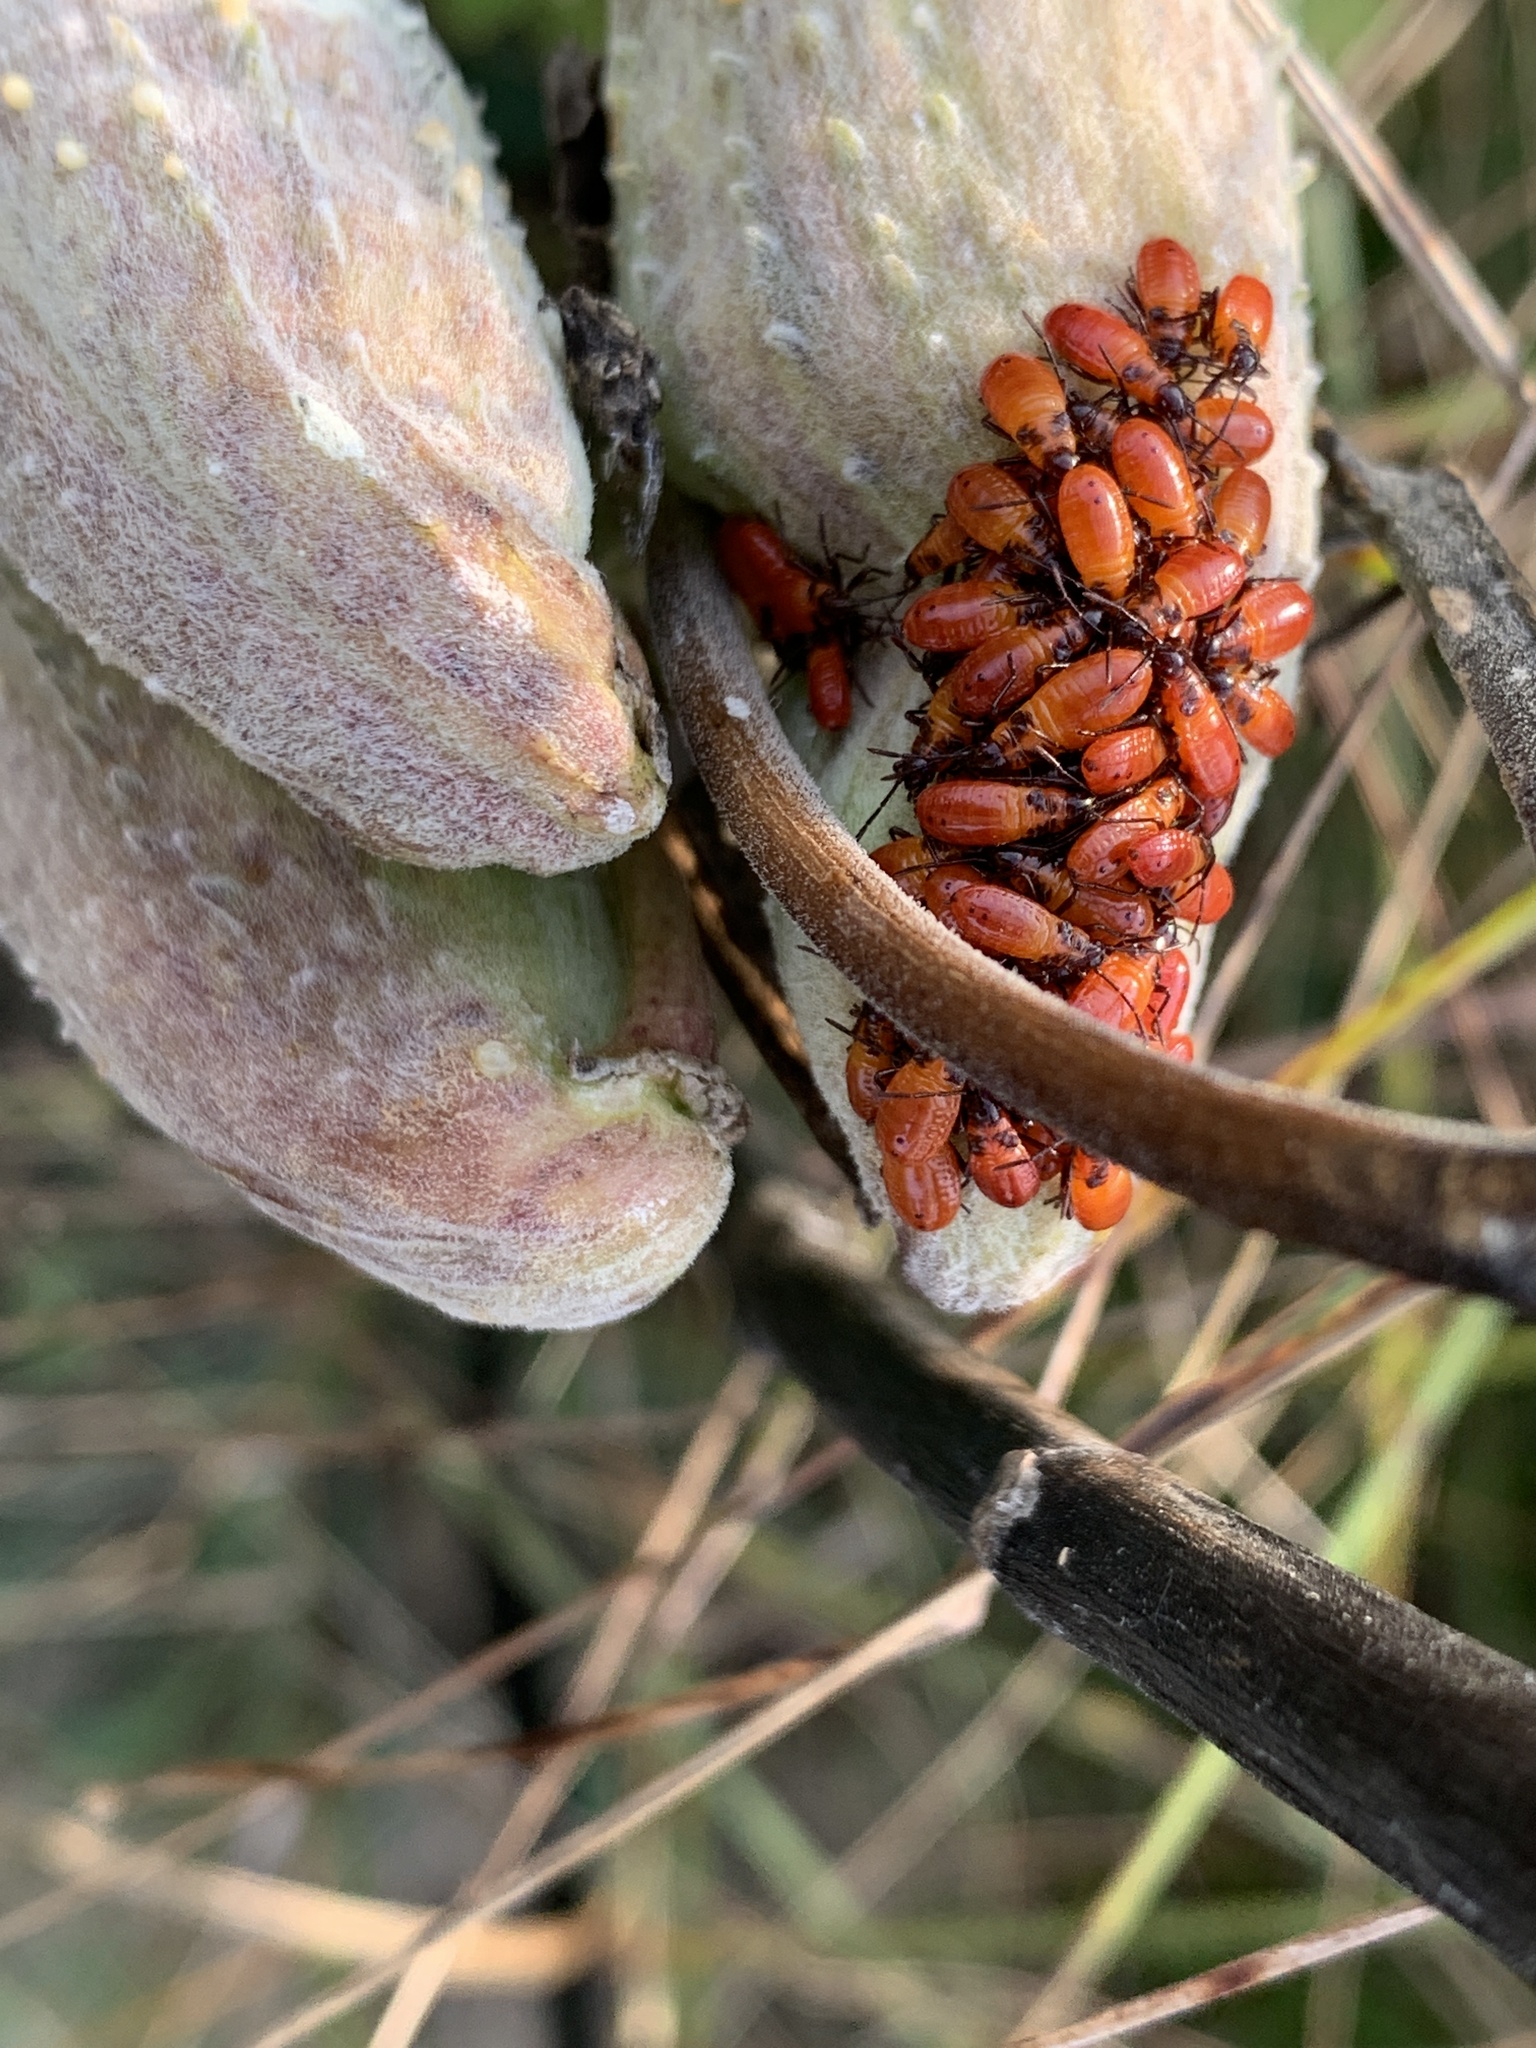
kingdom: Animalia
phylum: Arthropoda
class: Insecta
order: Hemiptera
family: Lygaeidae
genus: Oncopeltus
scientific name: Oncopeltus fasciatus
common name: Large milkweed bug
